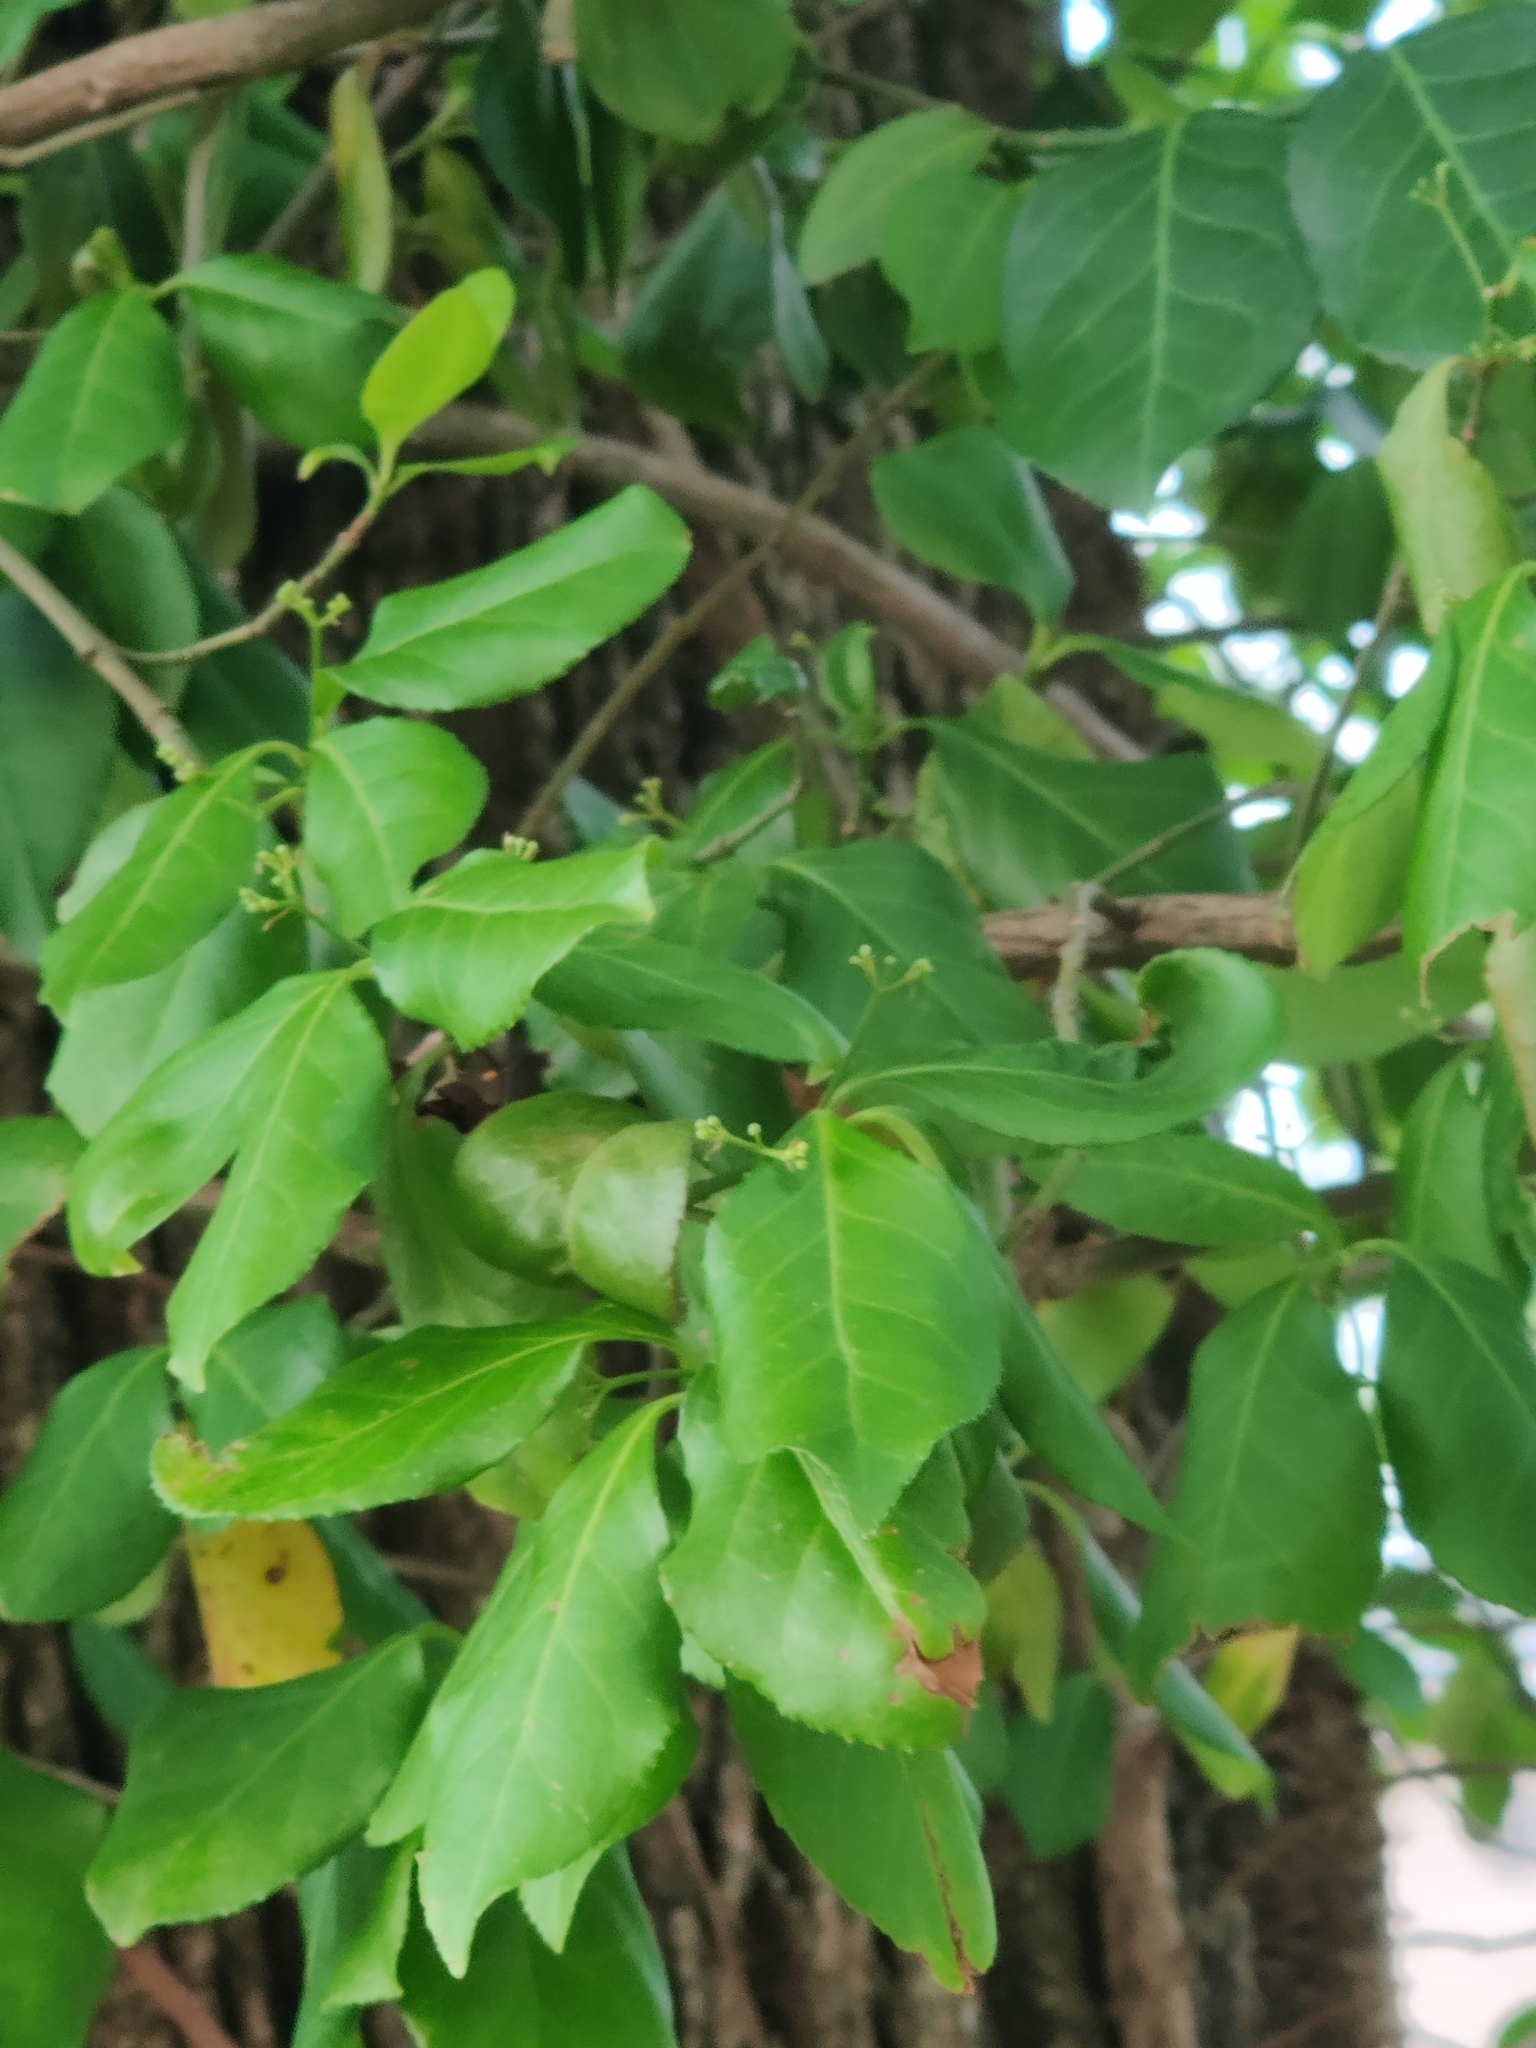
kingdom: Plantae
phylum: Tracheophyta
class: Magnoliopsida
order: Celastrales
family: Celastraceae
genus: Euonymus
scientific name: Euonymus fortunei
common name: Climbing euonymus
